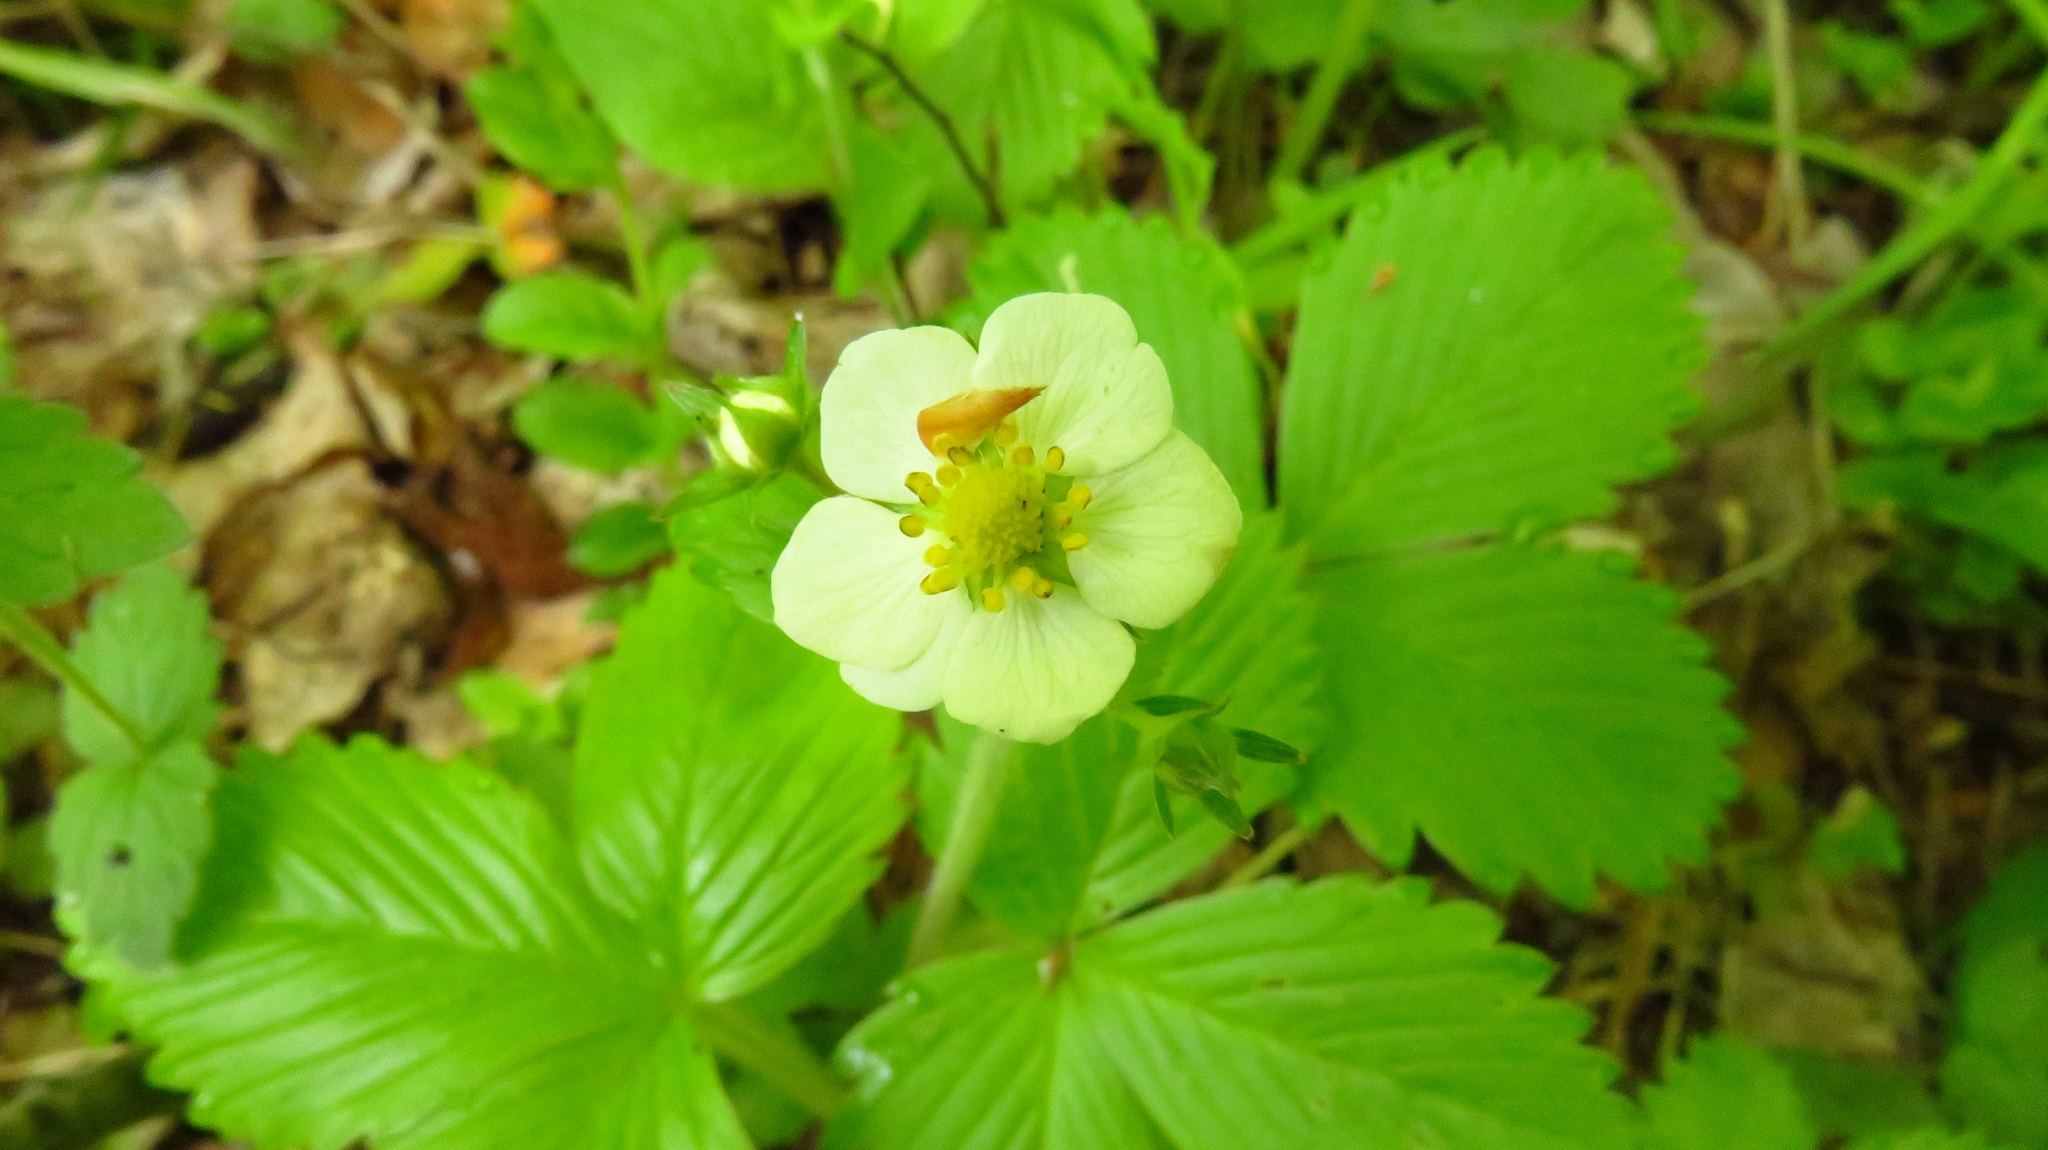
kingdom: Plantae
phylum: Tracheophyta
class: Magnoliopsida
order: Rosales
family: Rosaceae
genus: Fragaria
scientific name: Fragaria vesca
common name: Wild strawberry
